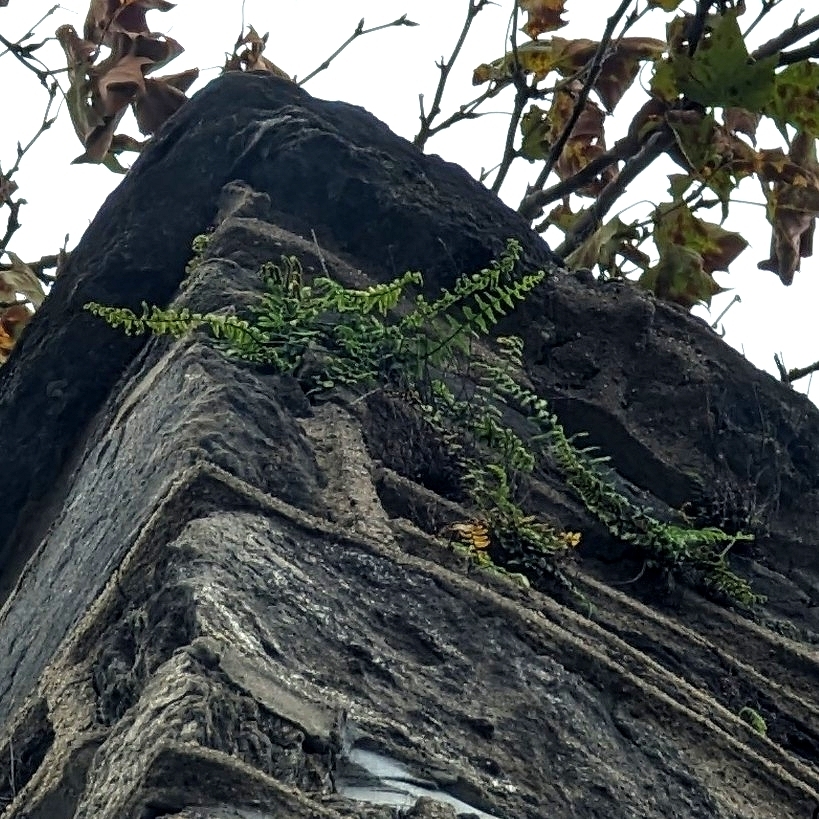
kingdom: Plantae
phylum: Tracheophyta
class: Polypodiopsida
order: Polypodiales
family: Aspleniaceae
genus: Asplenium
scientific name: Asplenium platyneuron
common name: Ebony spleenwort
